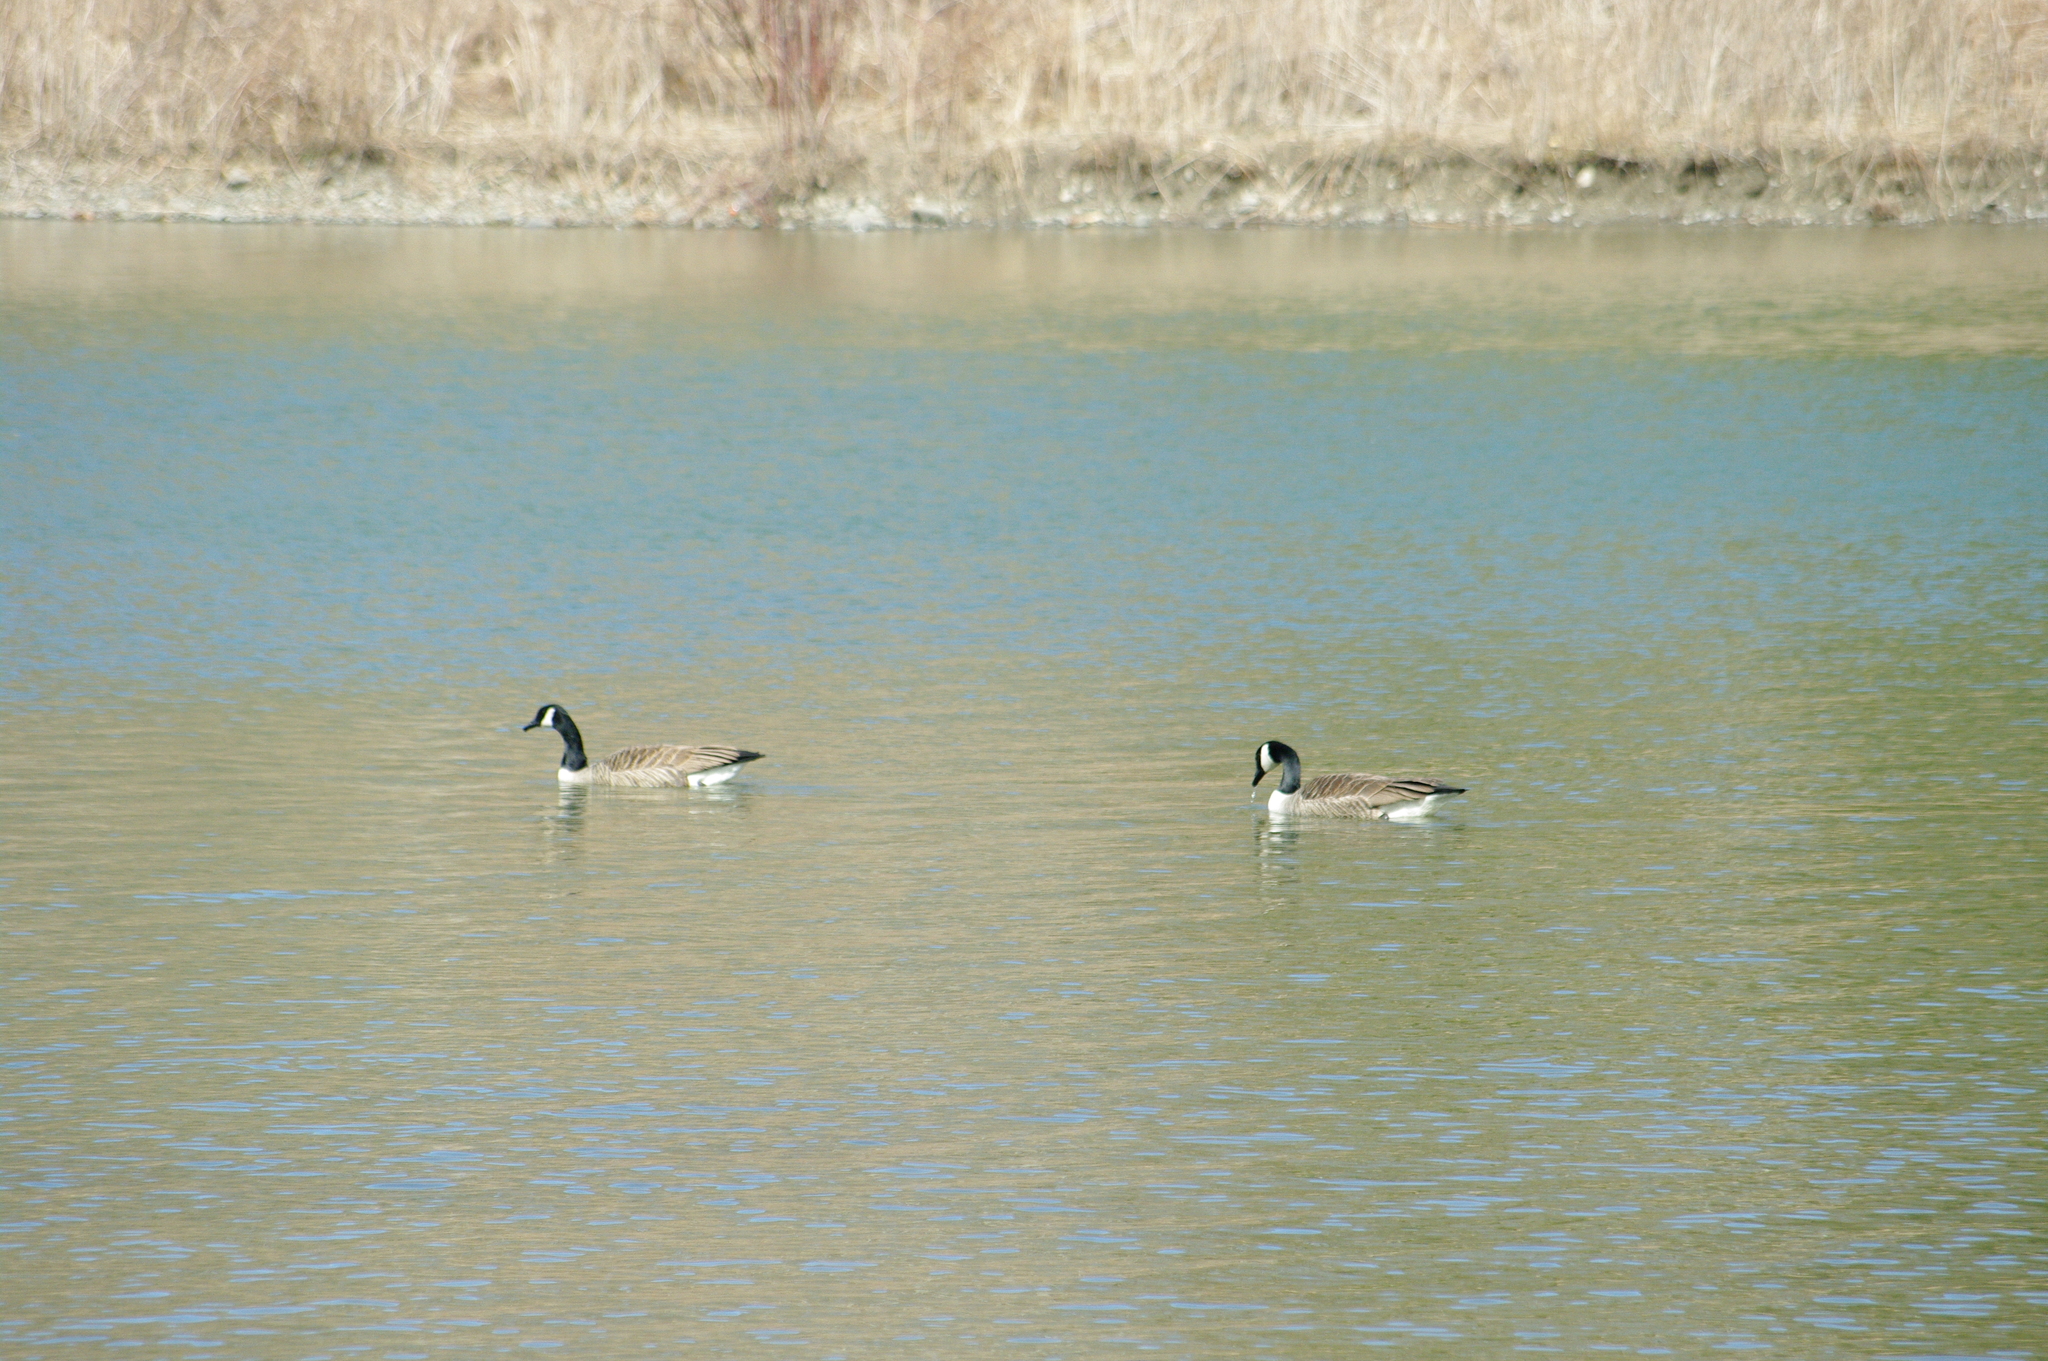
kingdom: Animalia
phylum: Chordata
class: Aves
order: Anseriformes
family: Anatidae
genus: Branta
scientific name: Branta canadensis
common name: Canada goose
